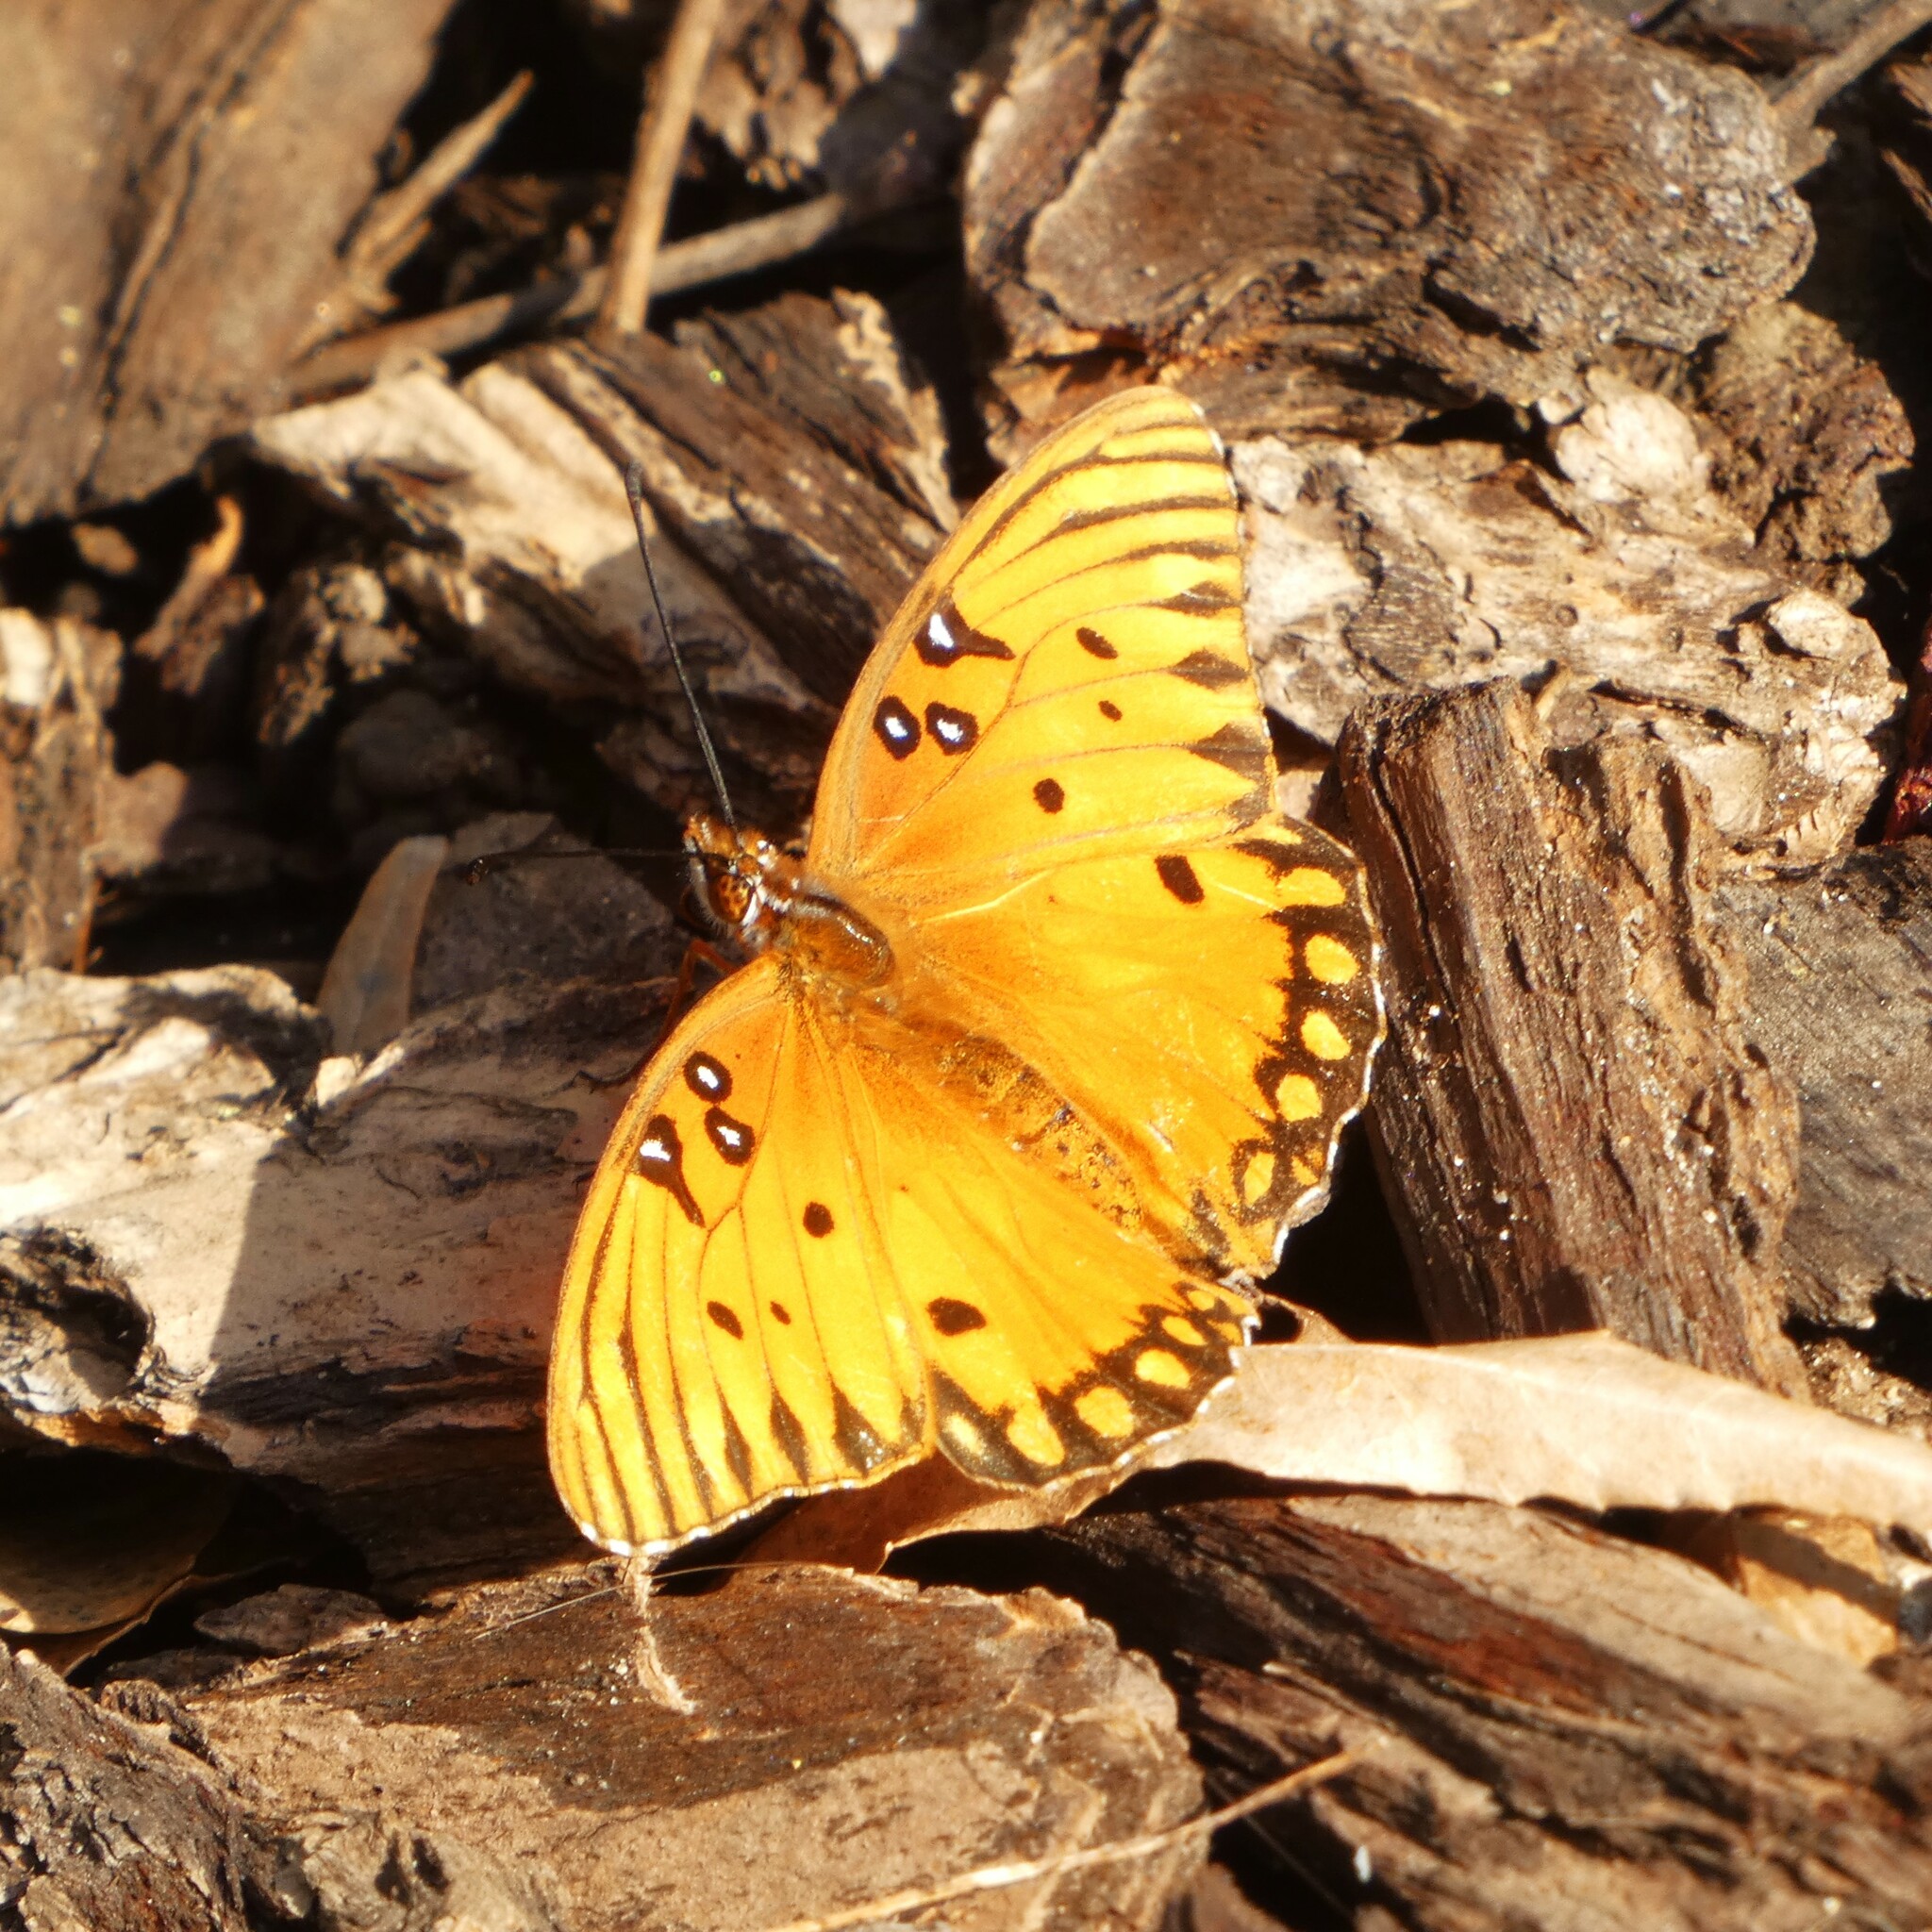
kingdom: Animalia
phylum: Arthropoda
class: Insecta
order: Lepidoptera
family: Nymphalidae
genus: Dione
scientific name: Dione vanillae
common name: Gulf fritillary
